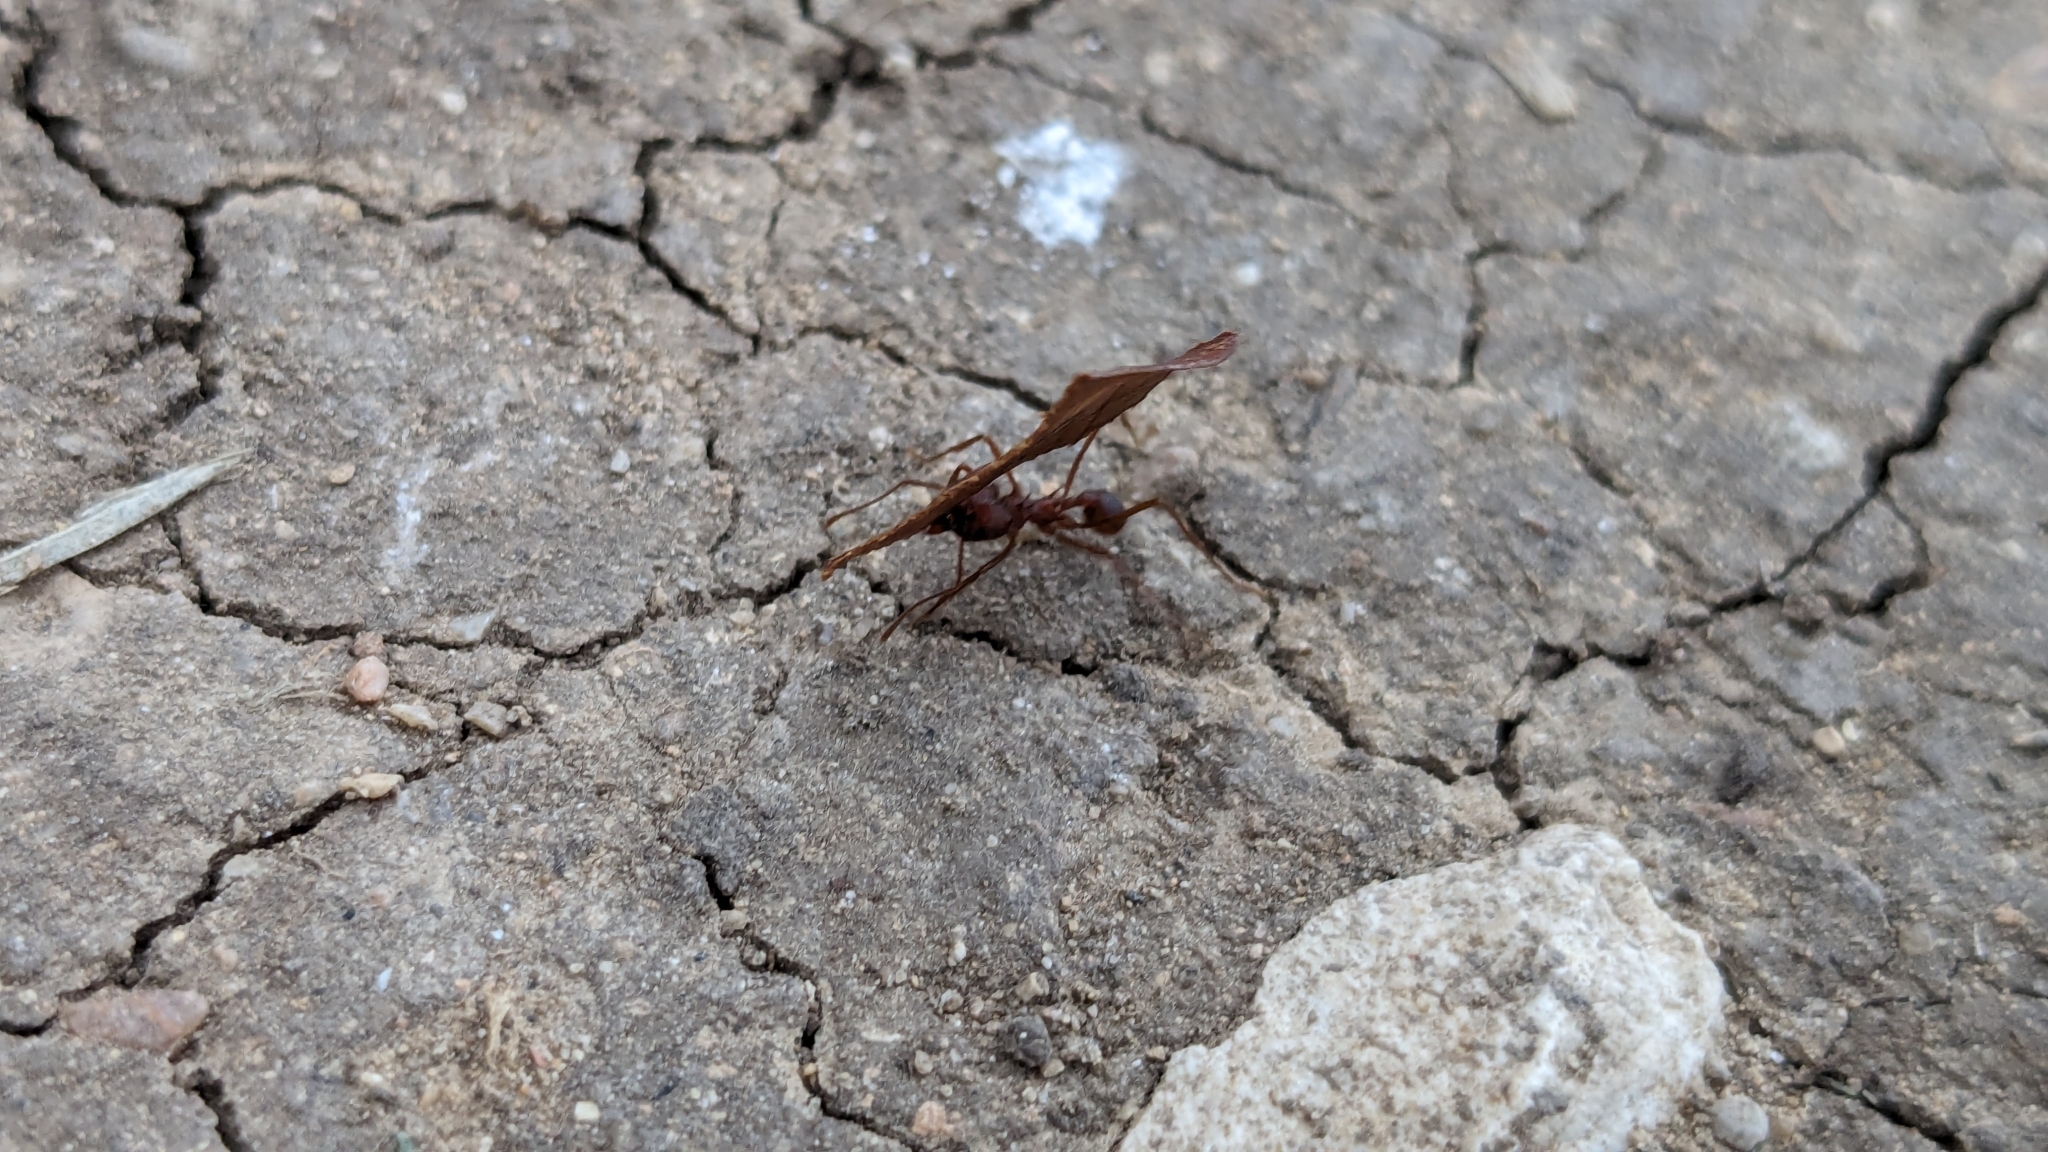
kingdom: Animalia
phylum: Arthropoda
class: Insecta
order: Hymenoptera
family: Formicidae
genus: Atta
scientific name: Atta texana
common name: Texas leafcutting ant
